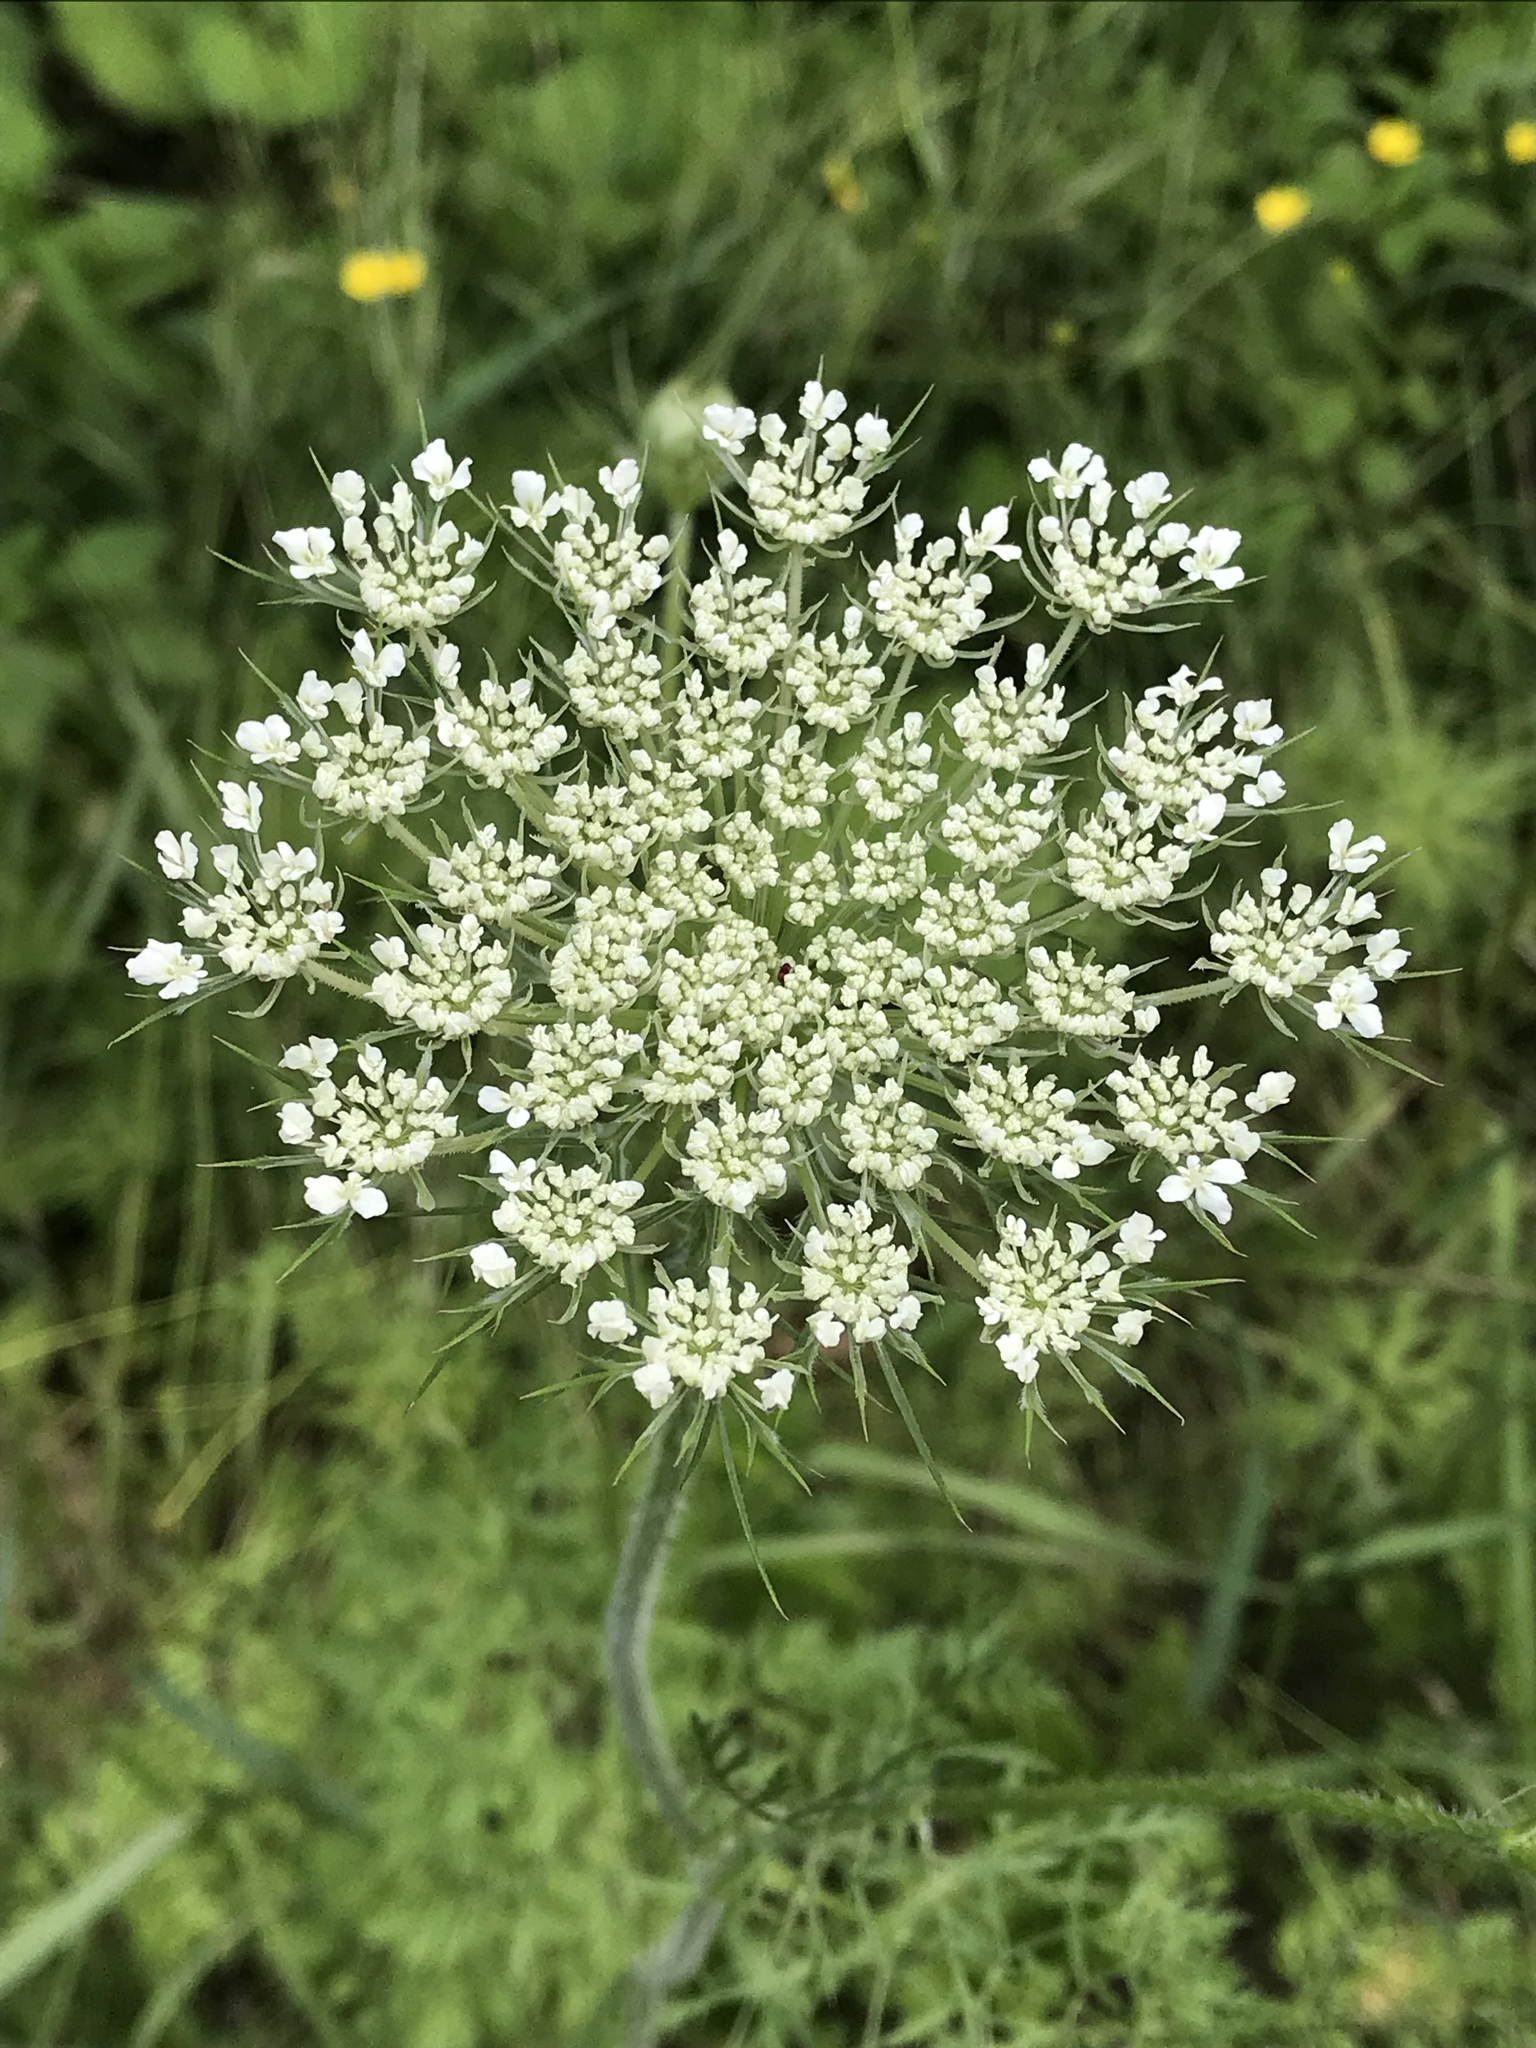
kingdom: Plantae
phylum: Tracheophyta
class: Magnoliopsida
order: Apiales
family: Apiaceae
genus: Daucus
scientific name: Daucus carota
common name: Wild carrot
